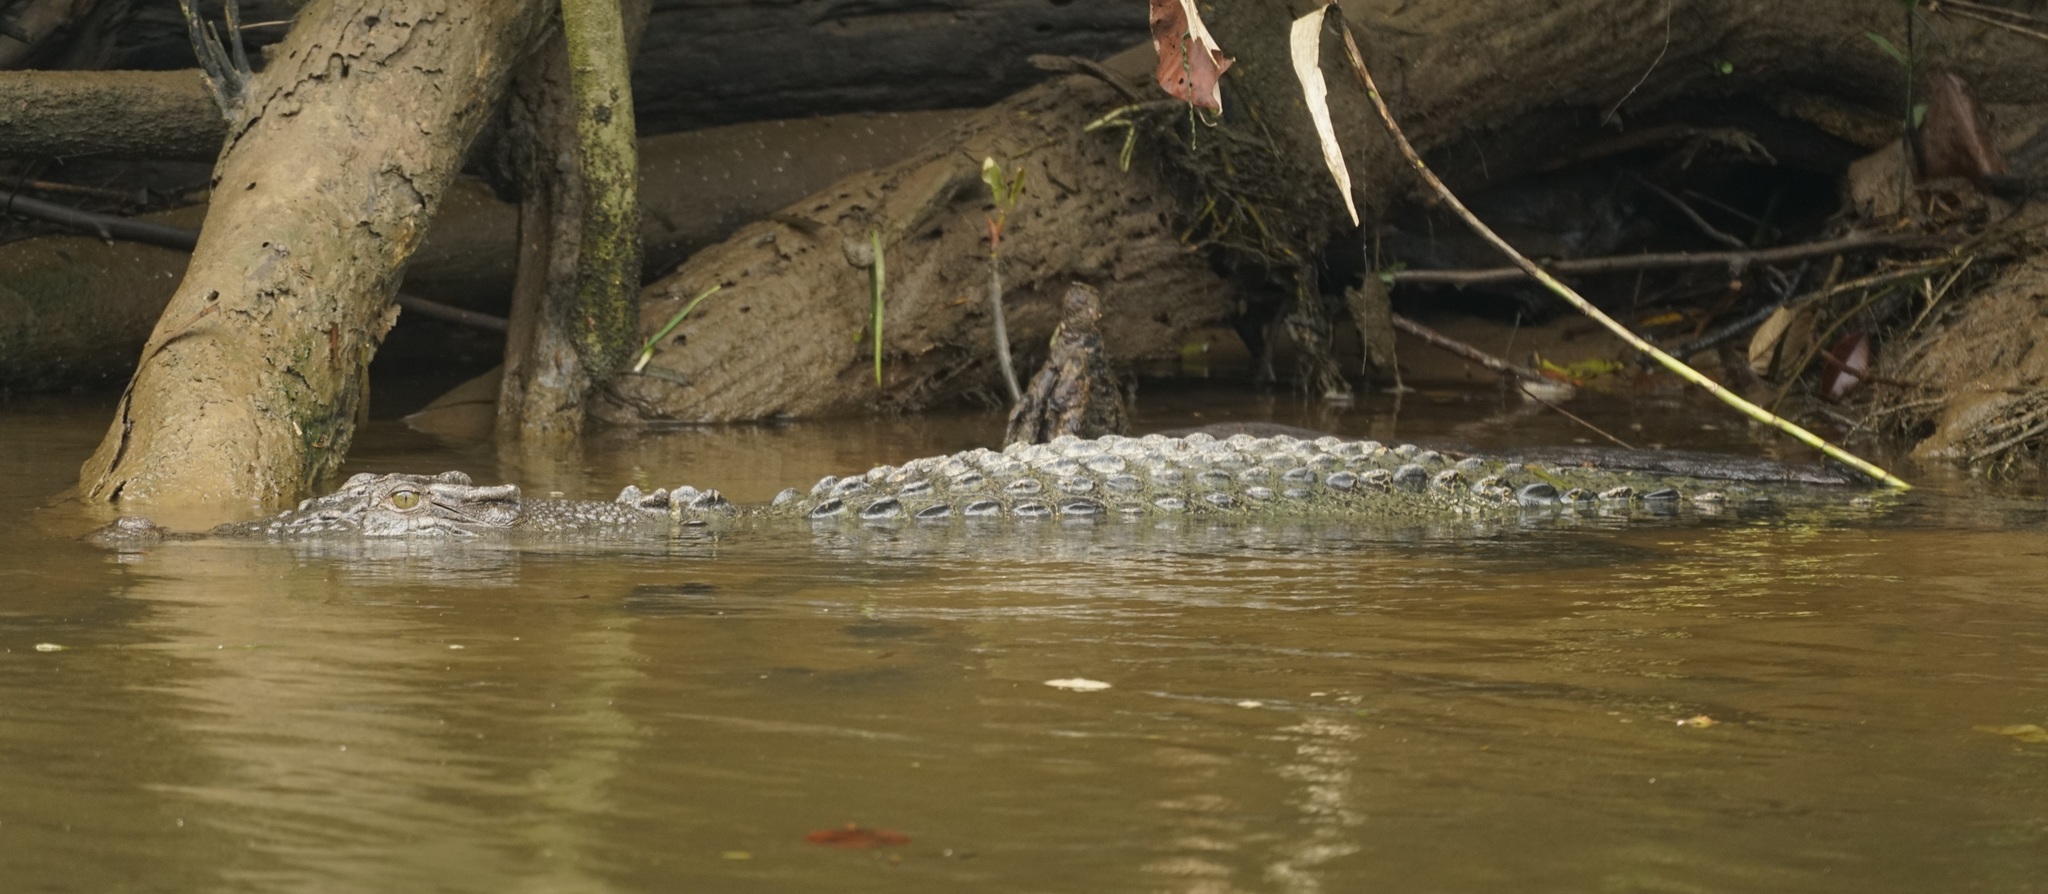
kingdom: Animalia
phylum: Chordata
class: Crocodylia
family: Crocodylidae
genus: Crocodylus
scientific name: Crocodylus porosus
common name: Saltwater crocodile
